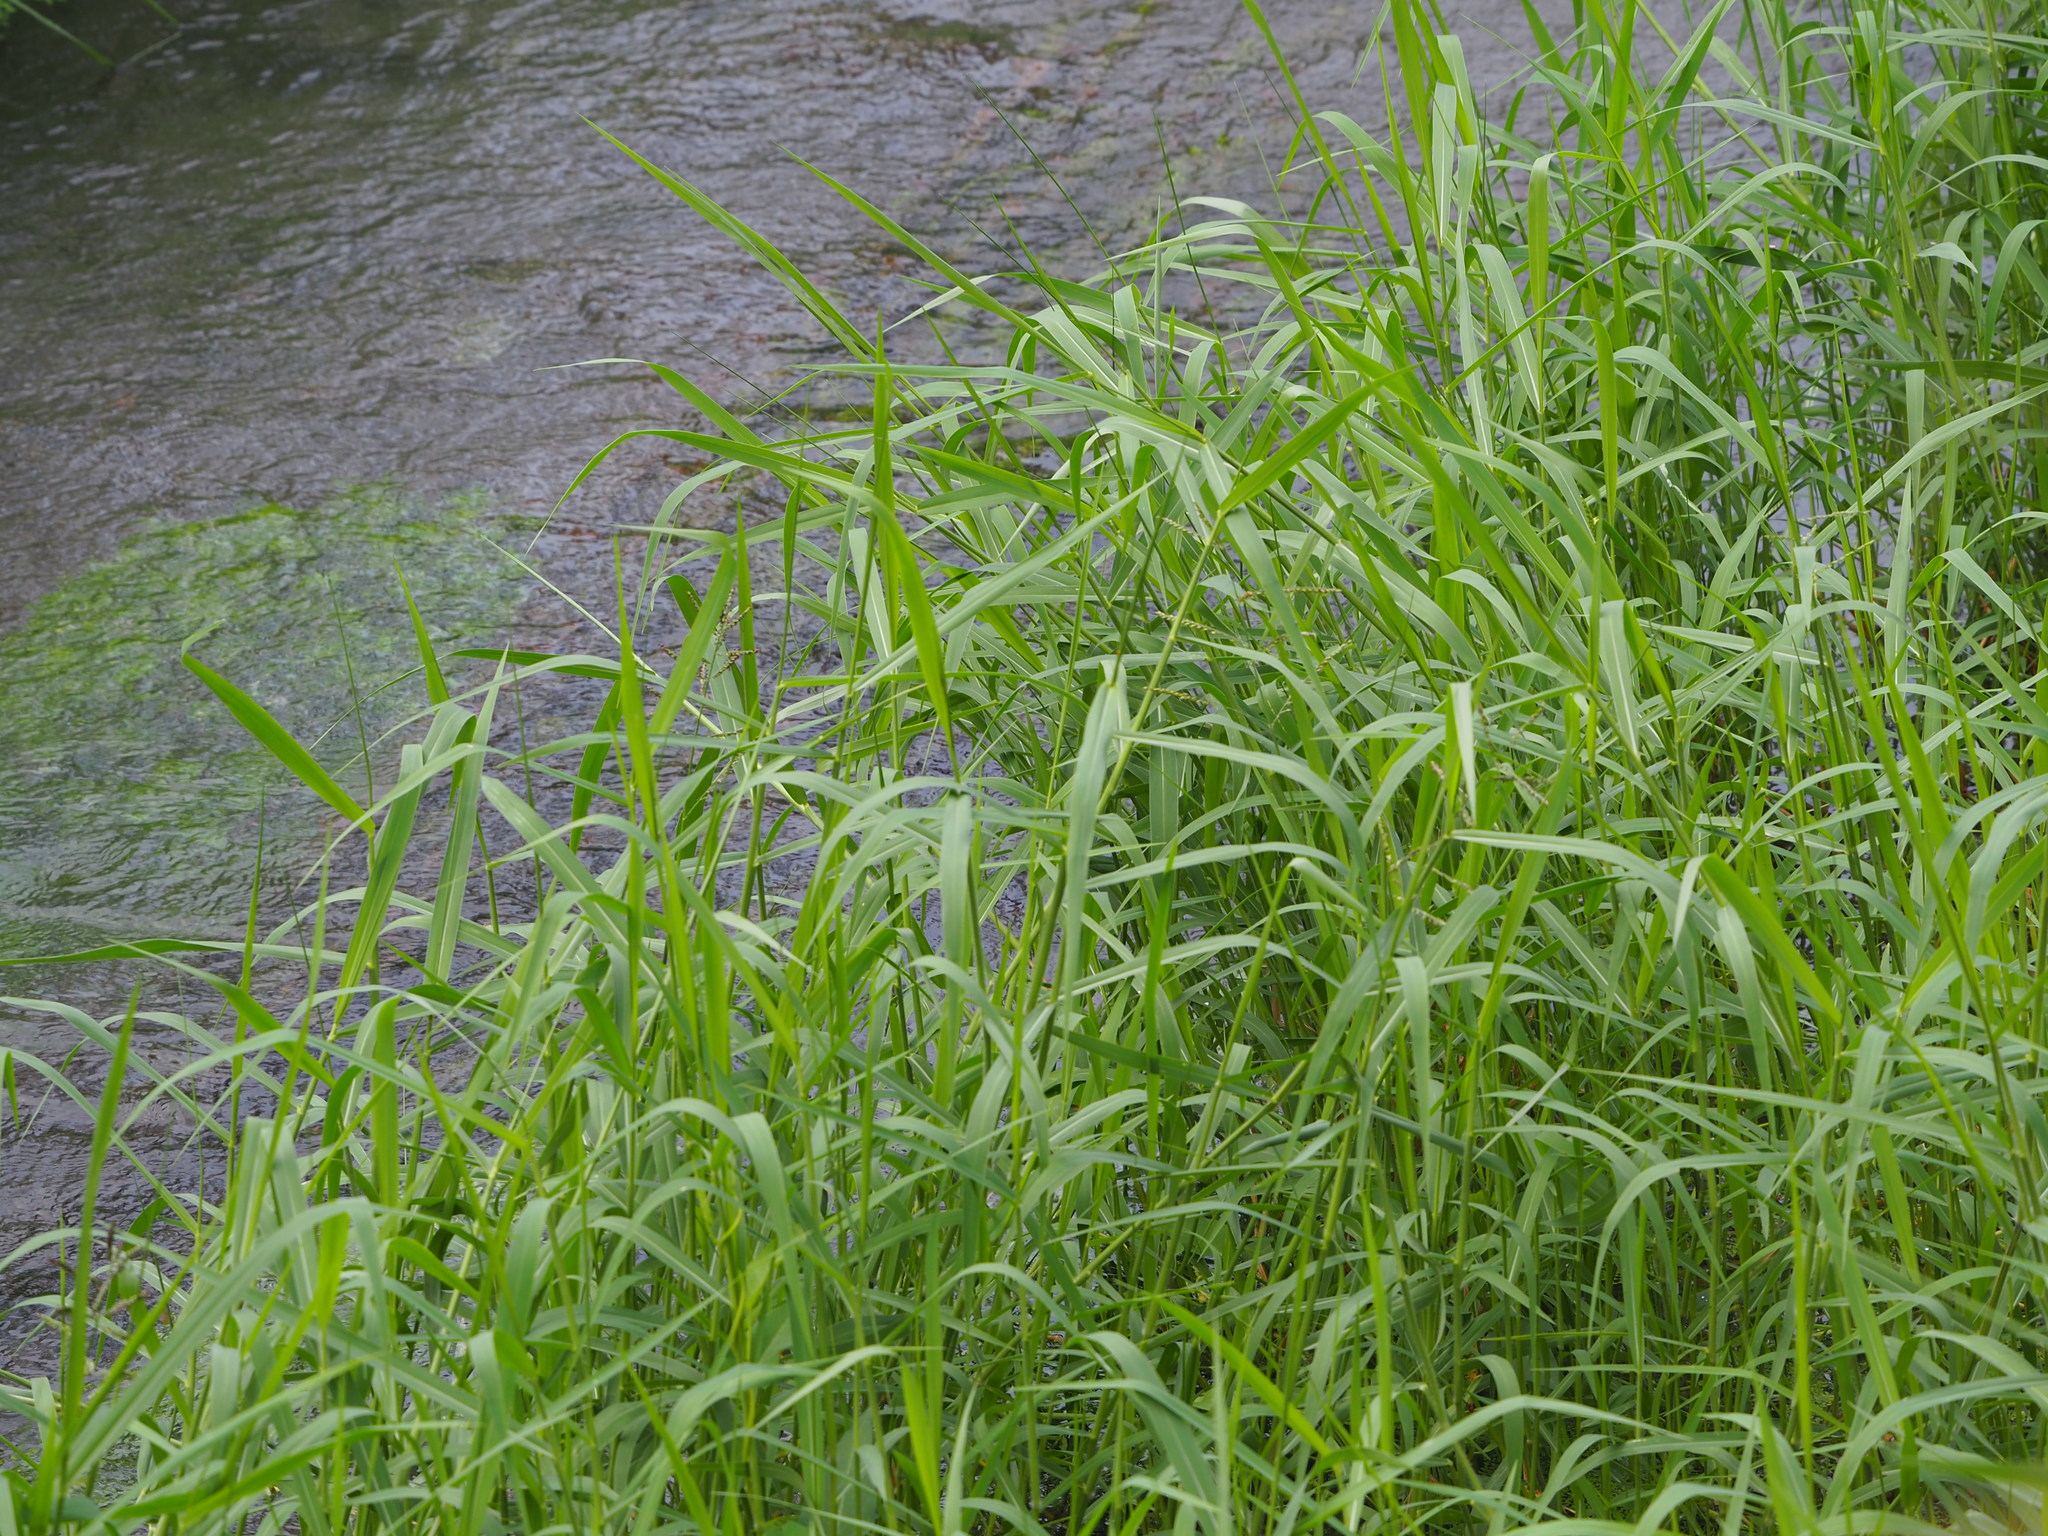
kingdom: Plantae
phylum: Tracheophyta
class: Liliopsida
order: Poales
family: Poaceae
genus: Urochloa
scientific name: Urochloa mutica
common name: Para grass
